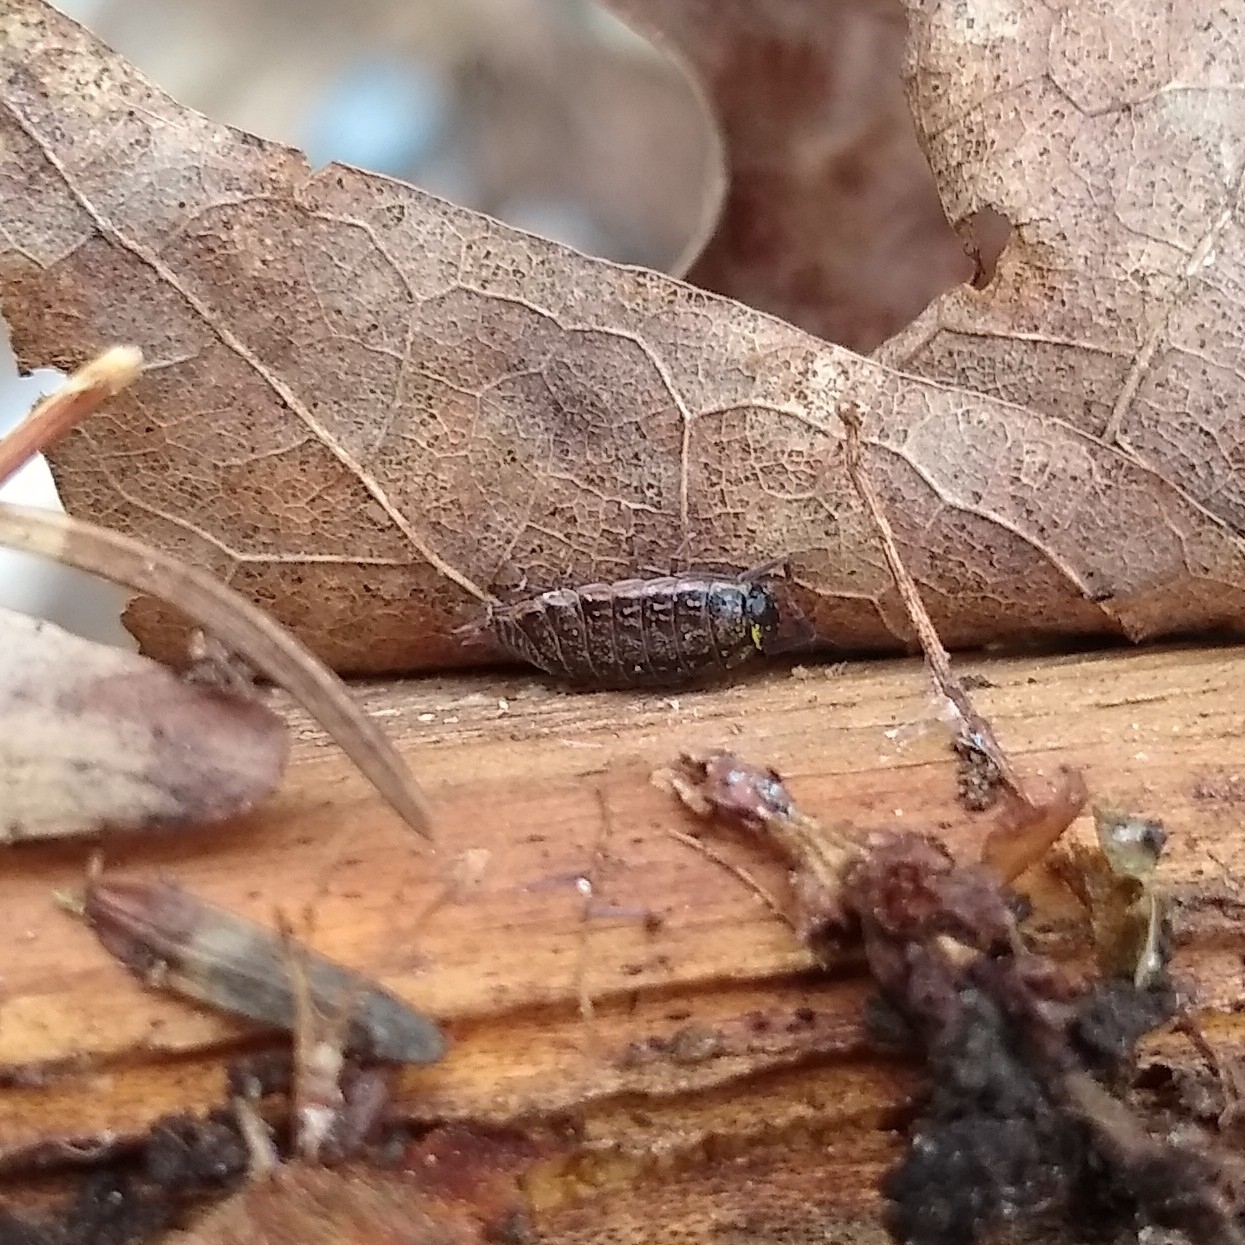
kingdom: Animalia
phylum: Arthropoda
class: Malacostraca
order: Isopoda
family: Philosciidae
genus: Philoscia
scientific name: Philoscia muscorum
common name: Common striped woodlouse
